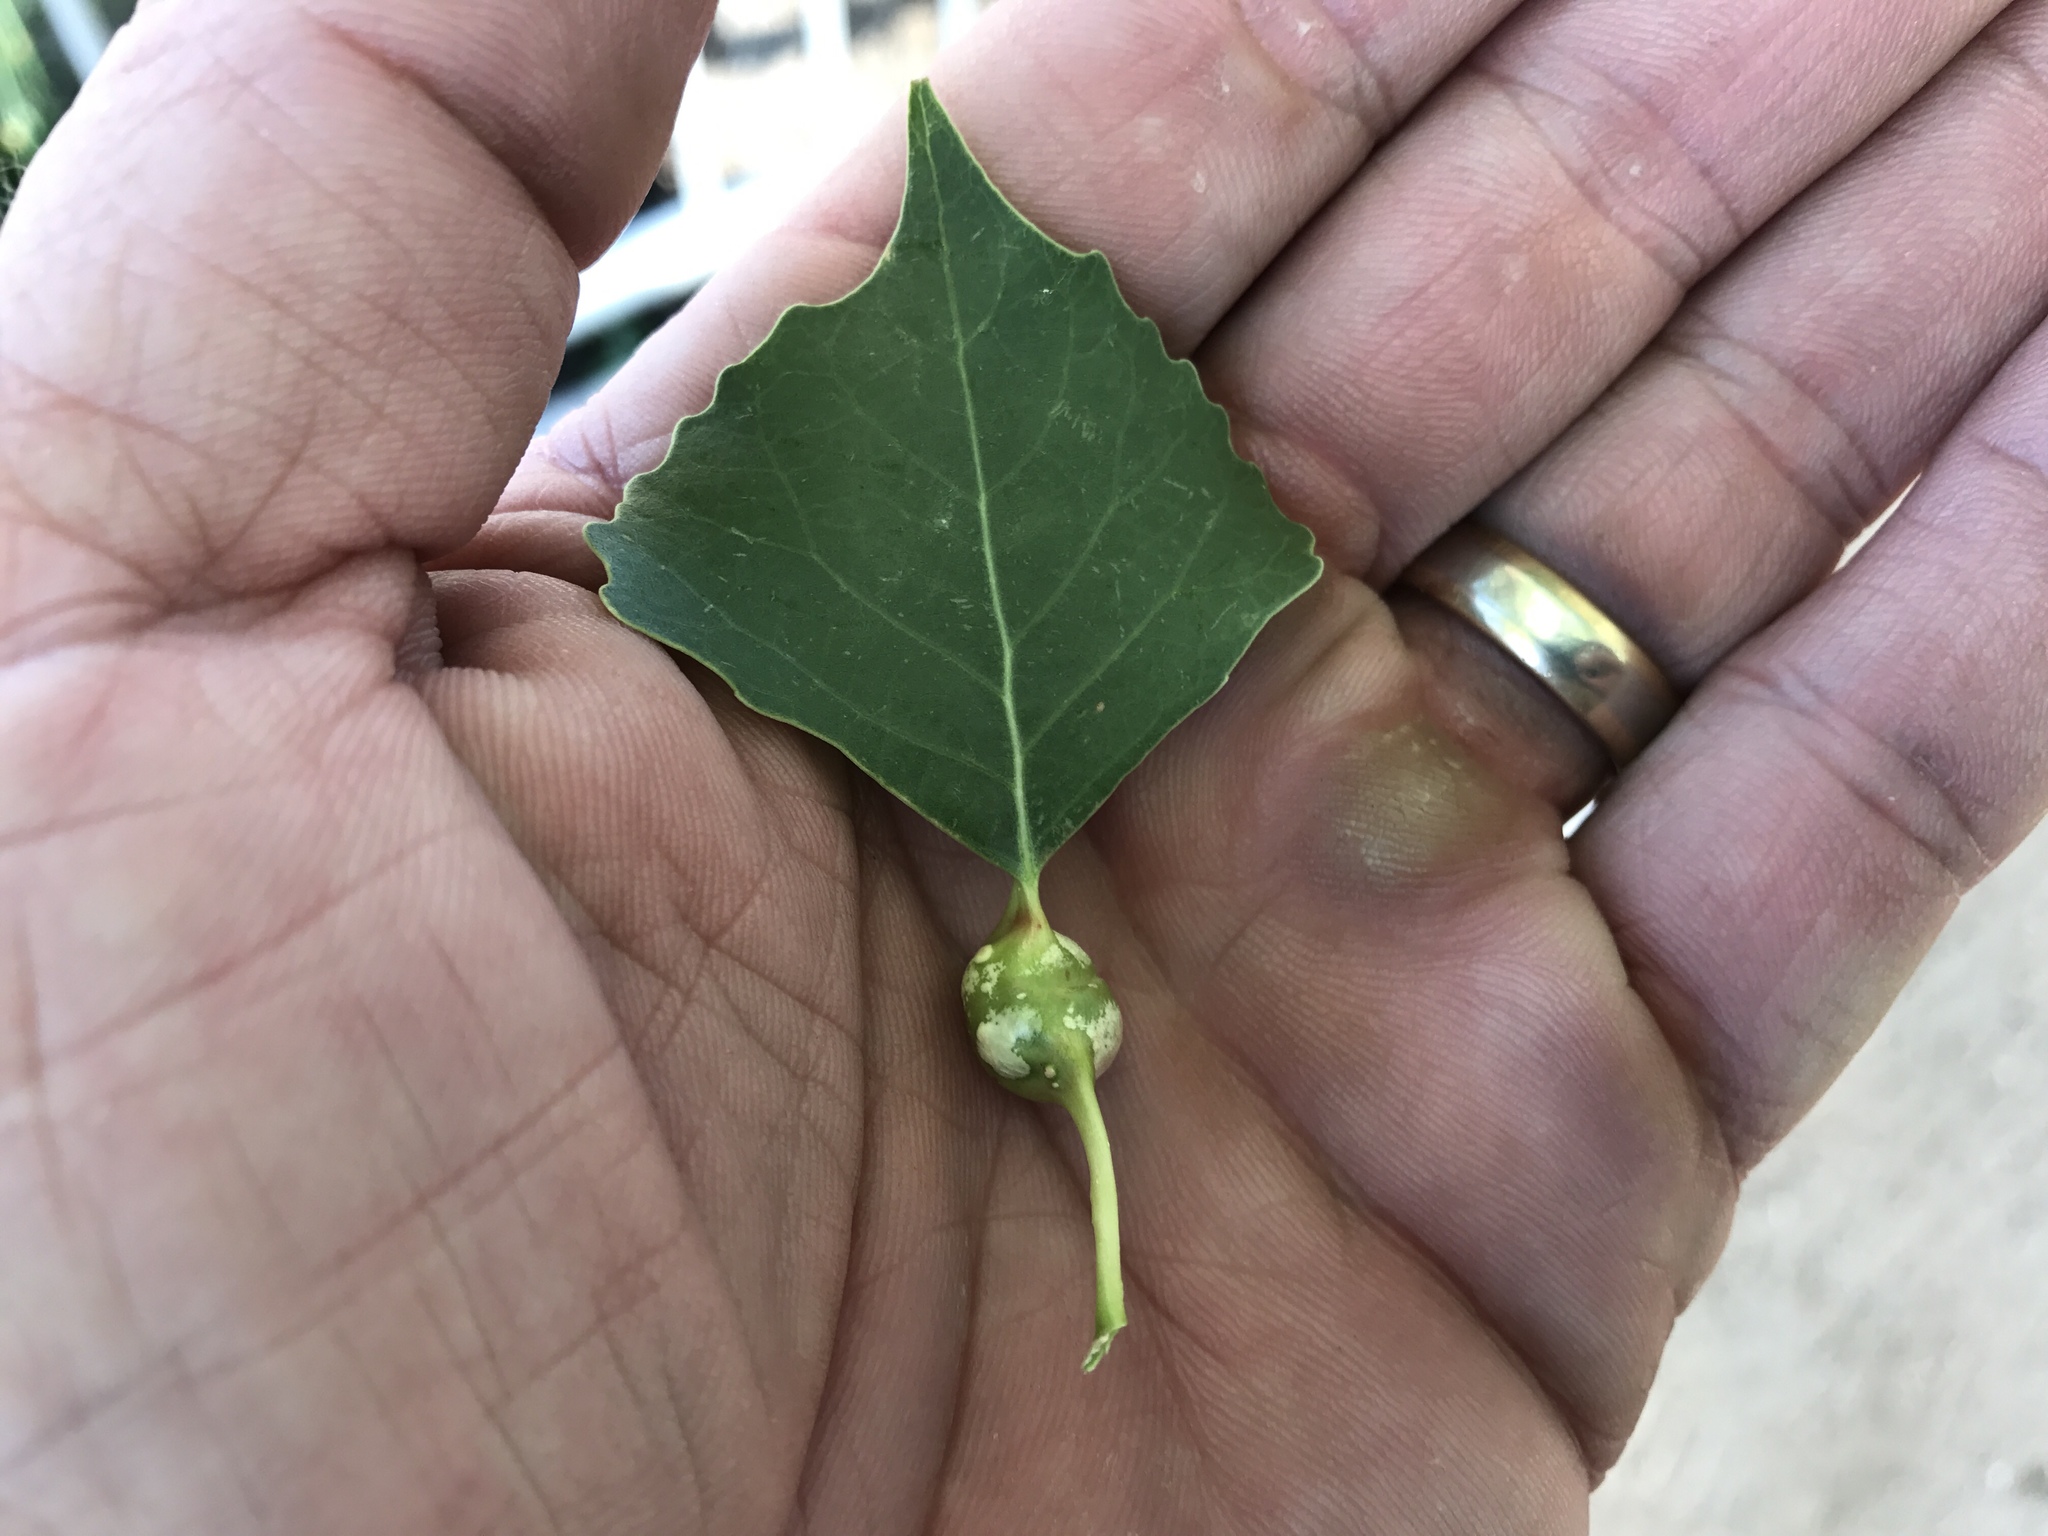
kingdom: Animalia
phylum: Arthropoda
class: Insecta
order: Hemiptera
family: Aphididae
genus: Pemphigus
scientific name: Pemphigus obesinymphae
